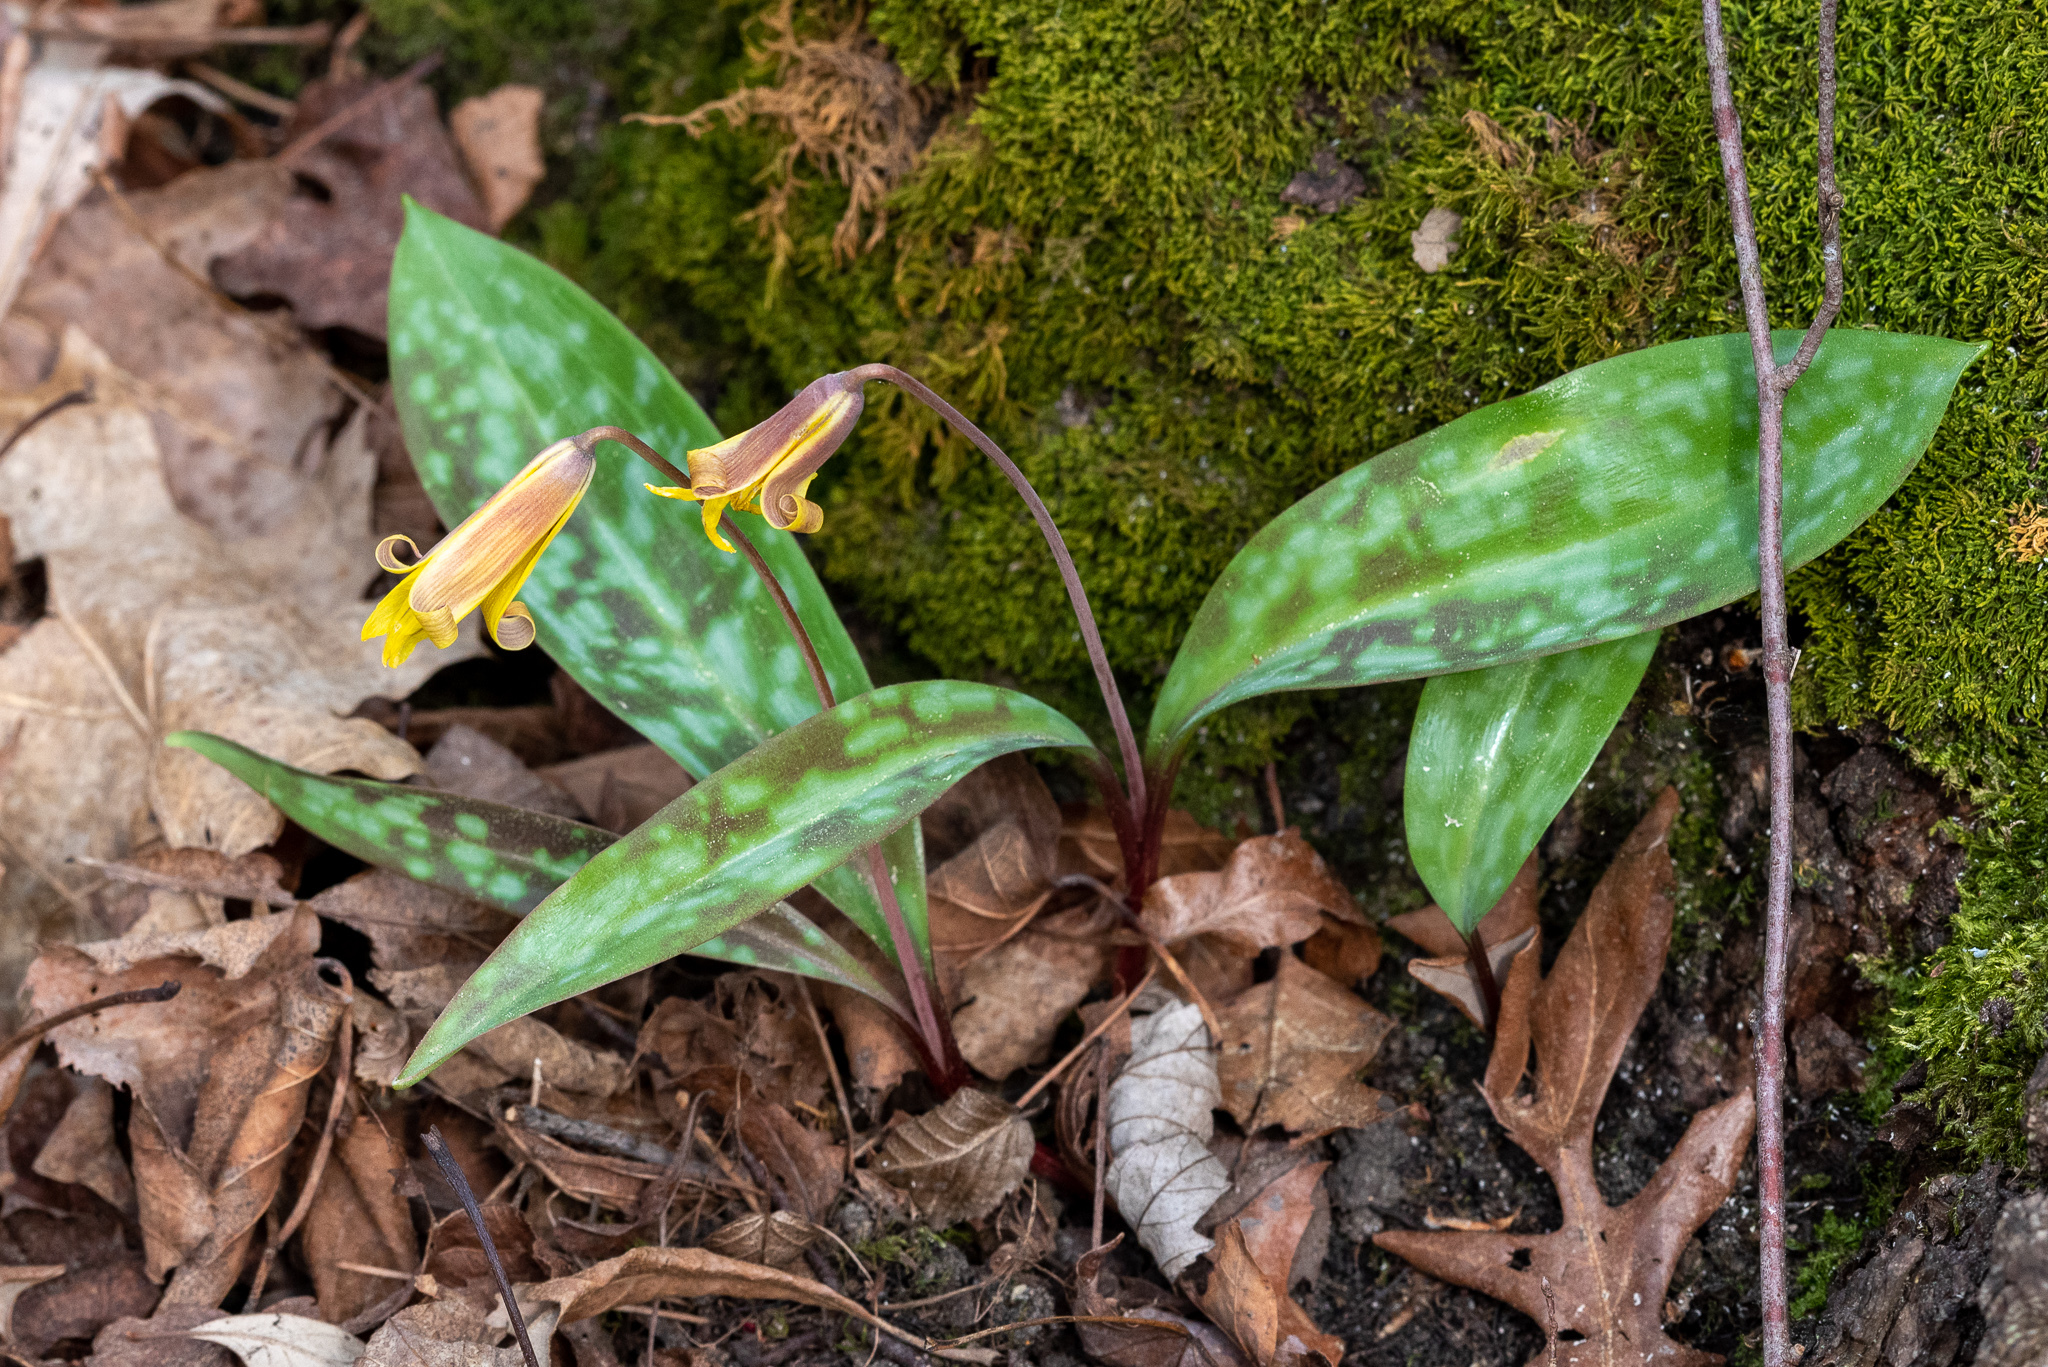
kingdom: Plantae
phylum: Tracheophyta
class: Liliopsida
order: Liliales
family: Liliaceae
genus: Erythronium
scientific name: Erythronium americanum
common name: Yellow adder's-tongue
